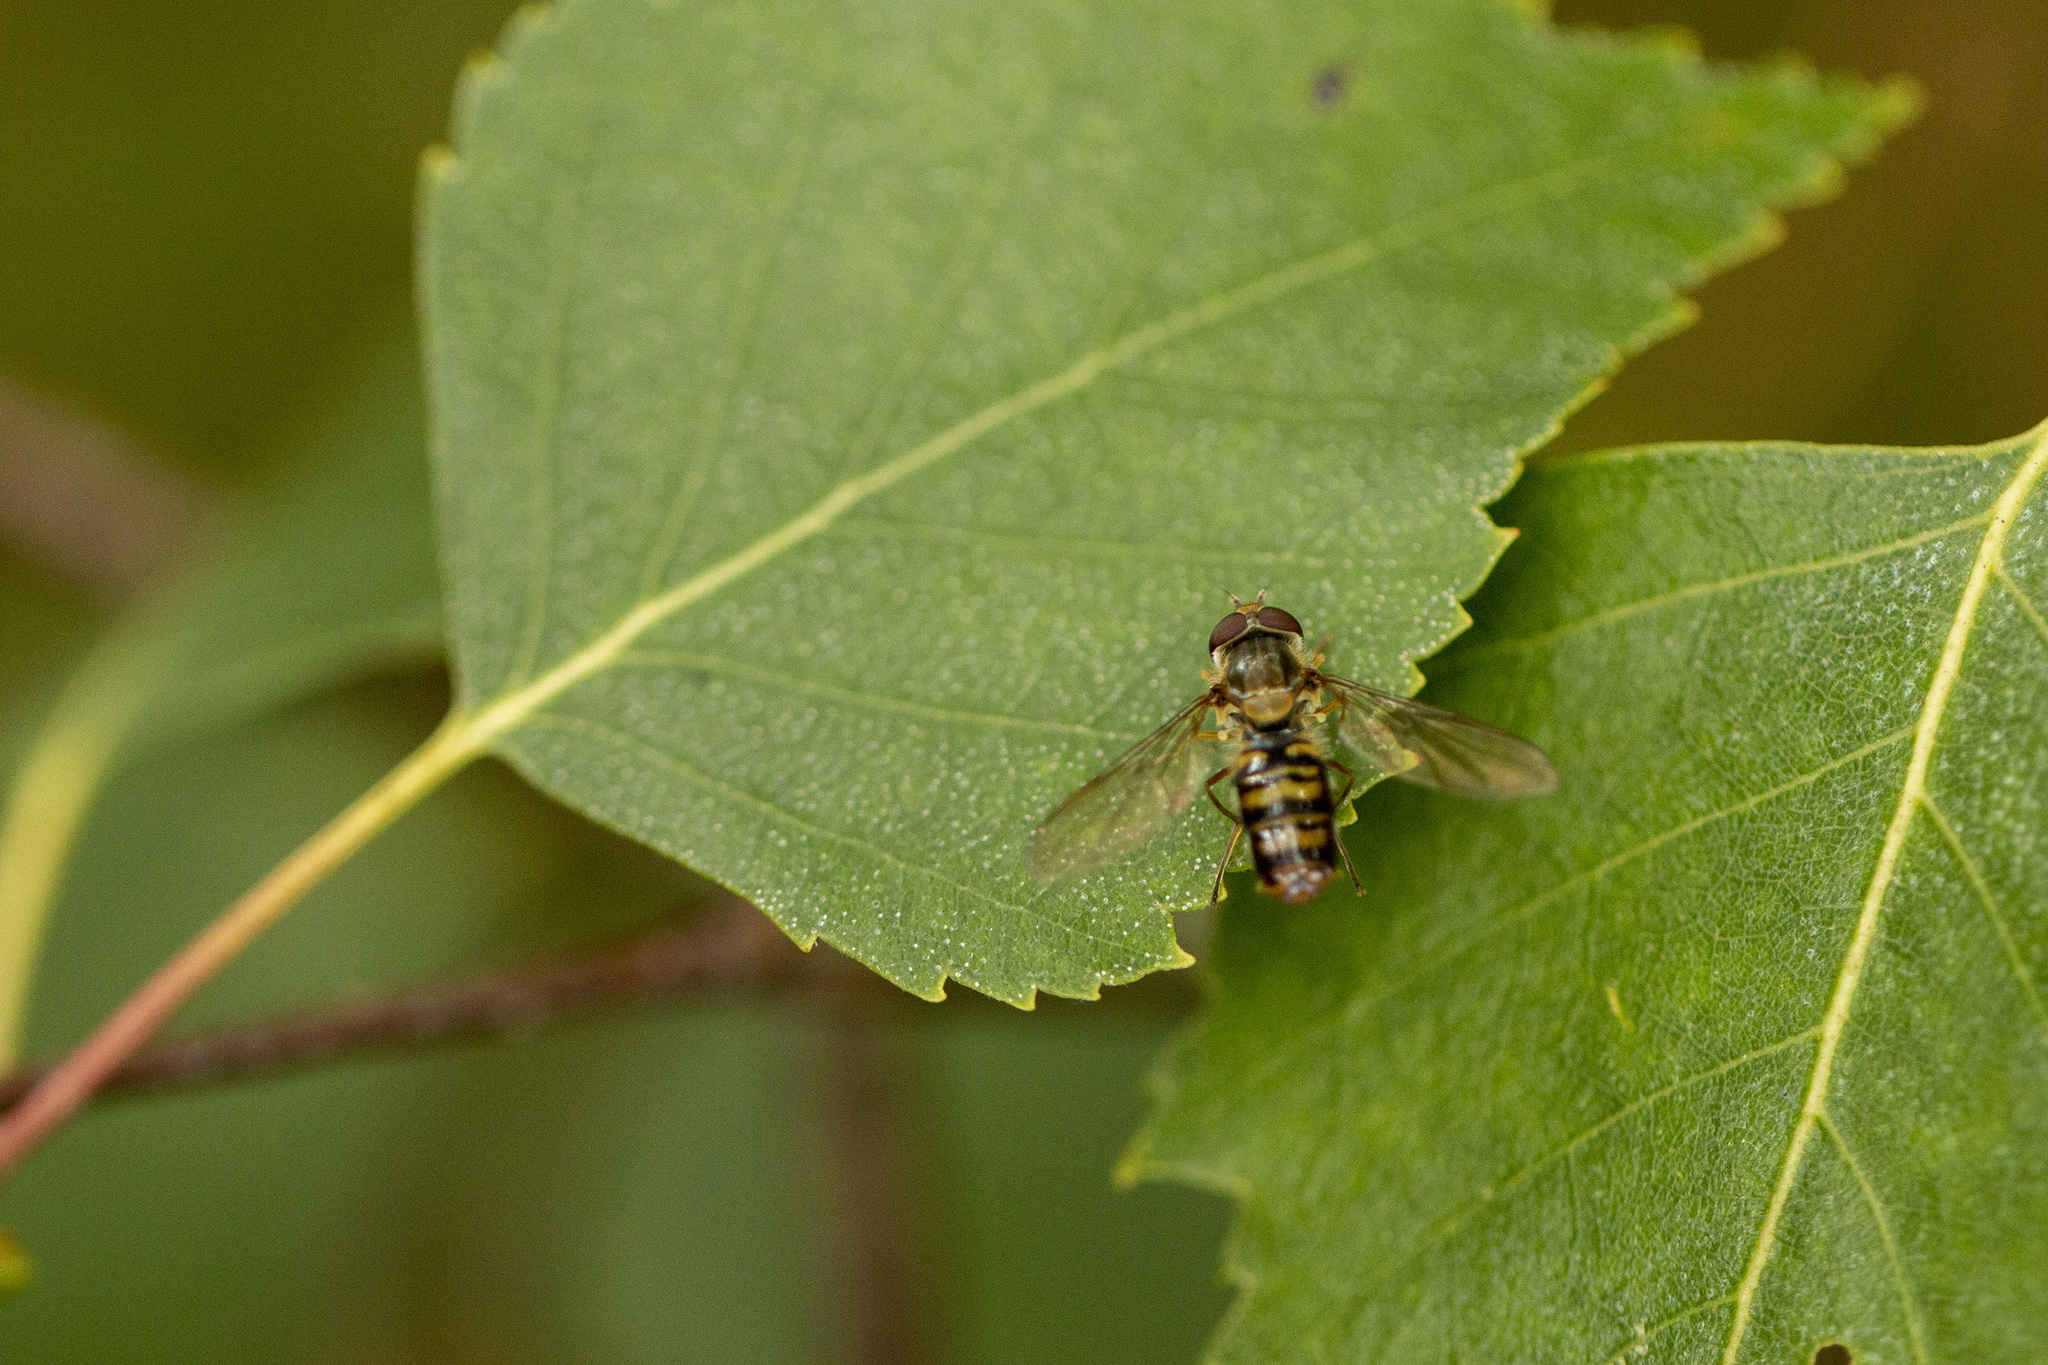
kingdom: Animalia
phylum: Arthropoda
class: Insecta
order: Diptera
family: Syrphidae
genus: Episyrphus
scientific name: Episyrphus balteatus
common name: Marmalade hoverfly
